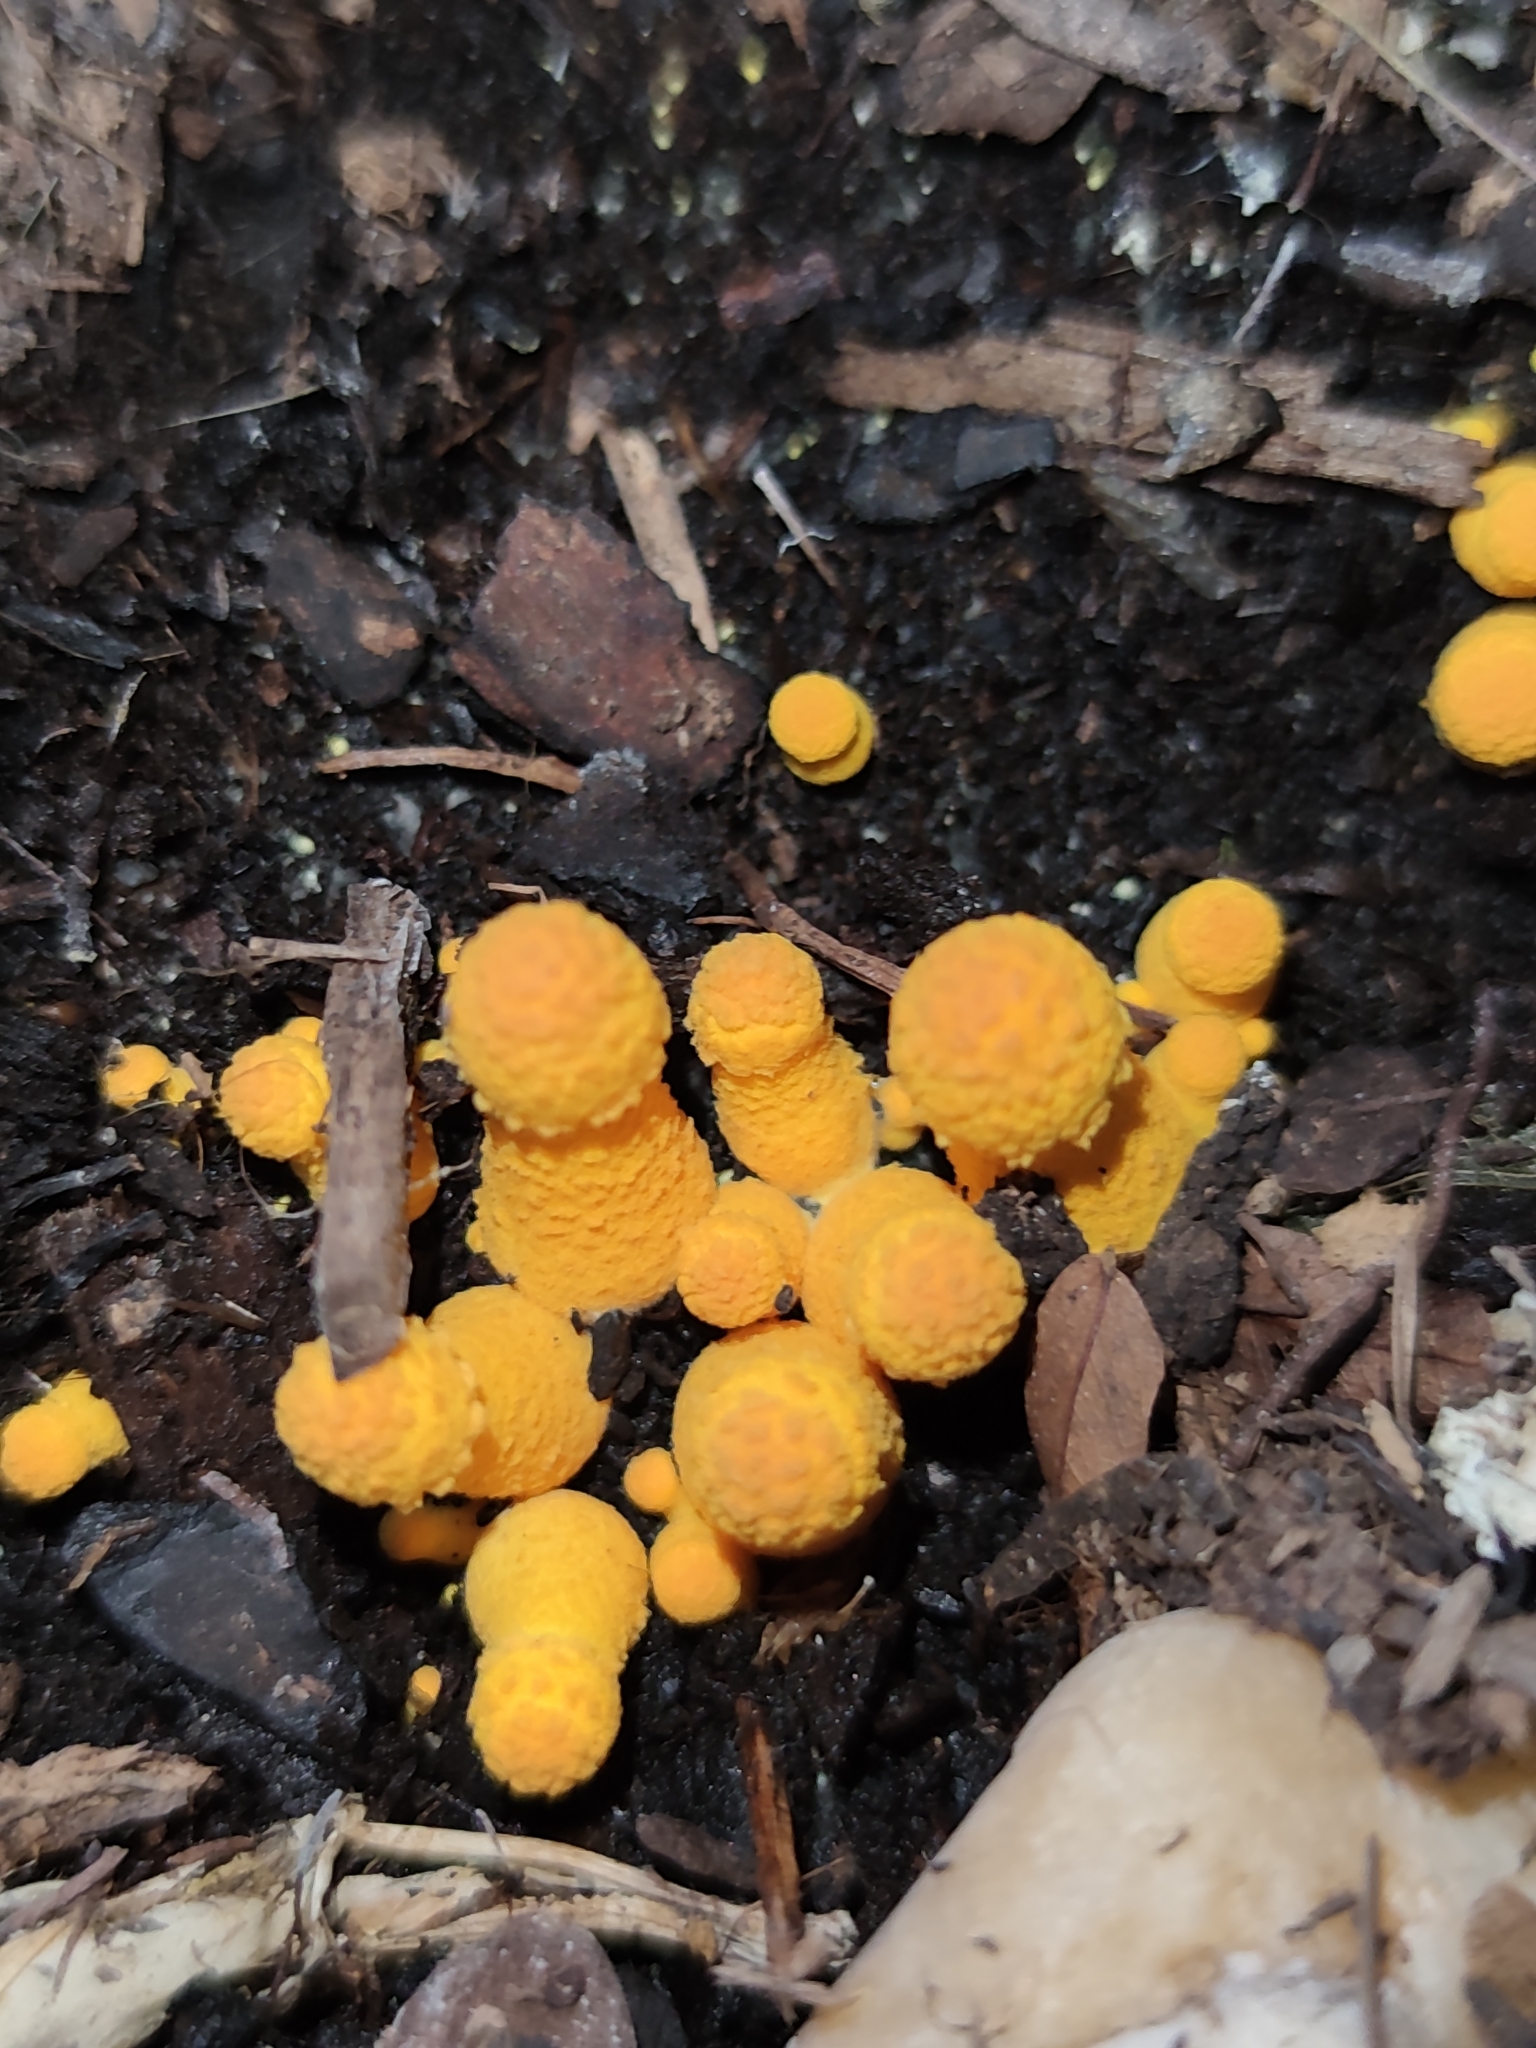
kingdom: Fungi
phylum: Basidiomycota
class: Agaricomycetes
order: Agaricales
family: Agaricaceae
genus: Leucocoprinus
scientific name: Leucocoprinus birnbaumii
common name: Plantpot dapperling
